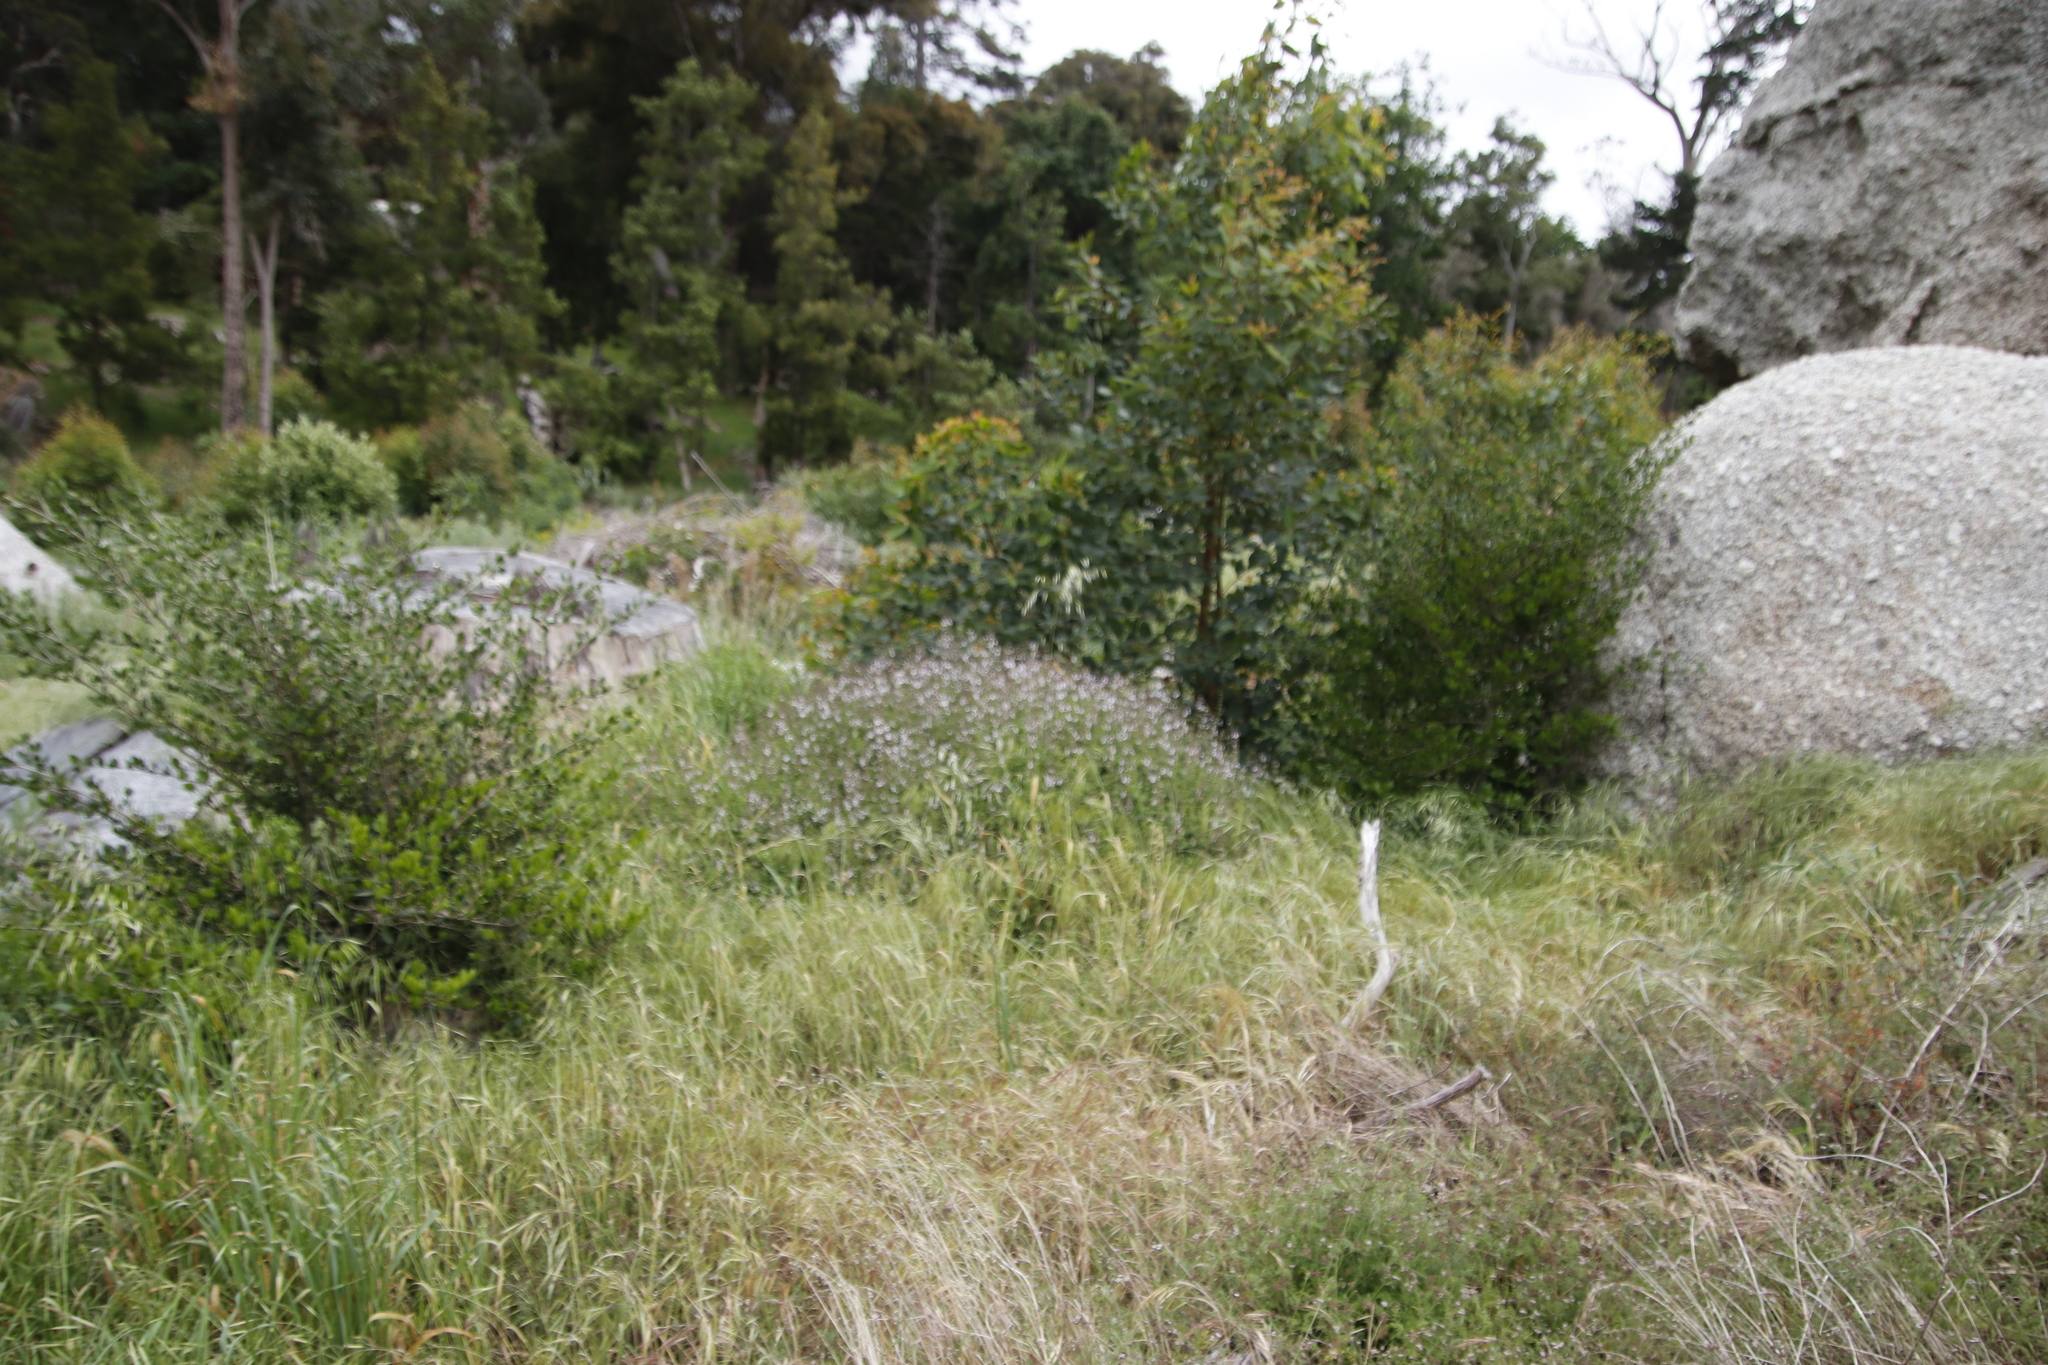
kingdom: Plantae
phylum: Tracheophyta
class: Magnoliopsida
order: Lamiales
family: Lamiaceae
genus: Stachys
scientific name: Stachys aethiopica
